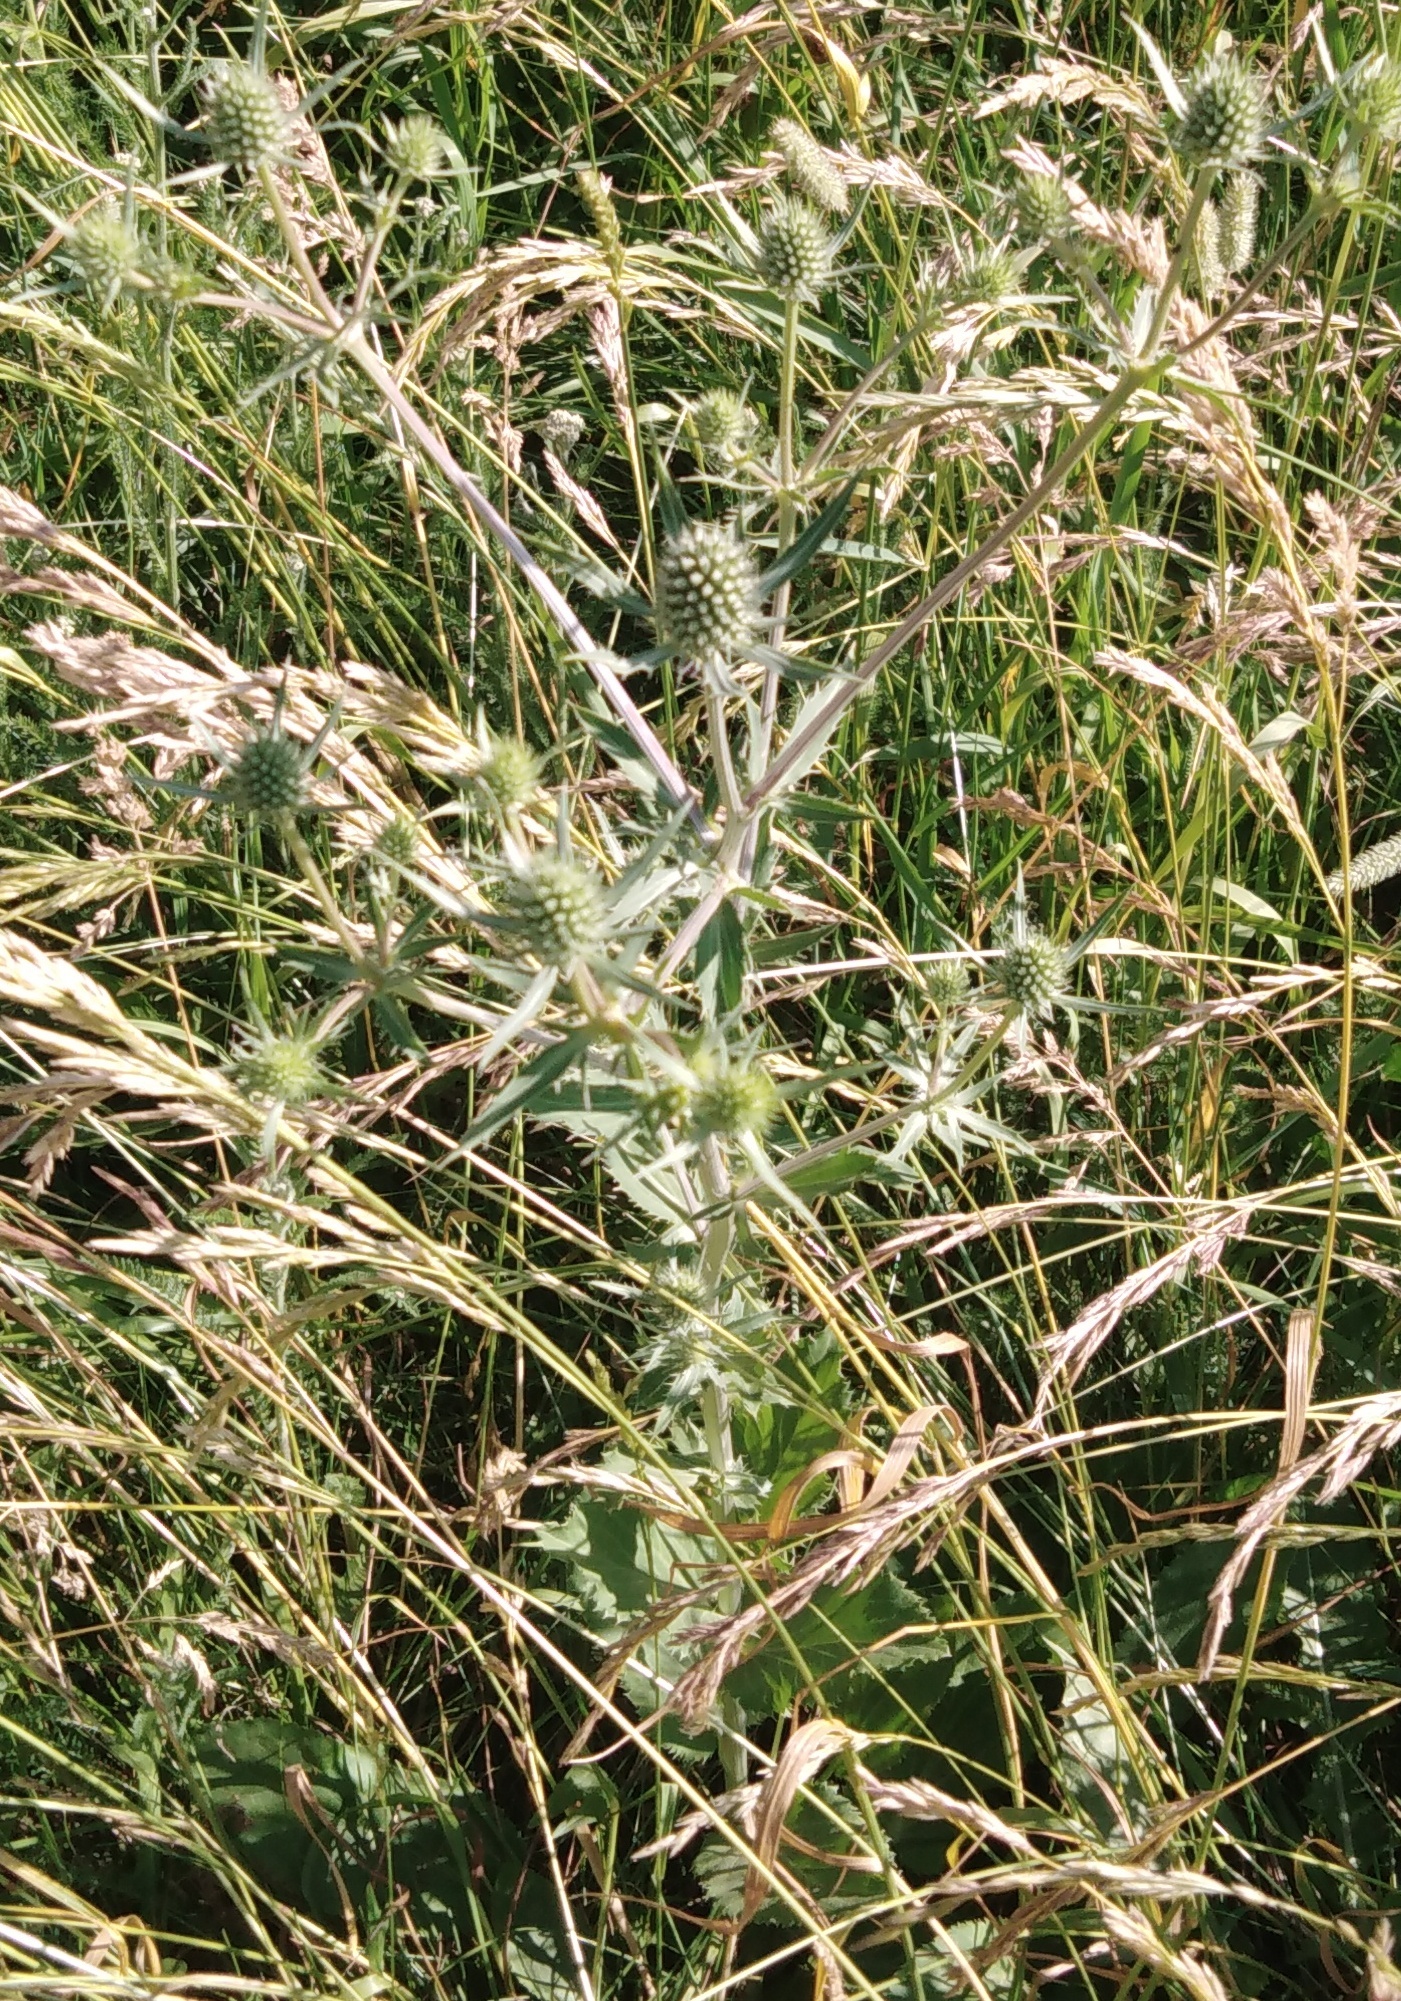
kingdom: Plantae
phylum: Tracheophyta
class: Magnoliopsida
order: Apiales
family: Apiaceae
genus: Eryngium
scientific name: Eryngium planum
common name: Blue eryngo
